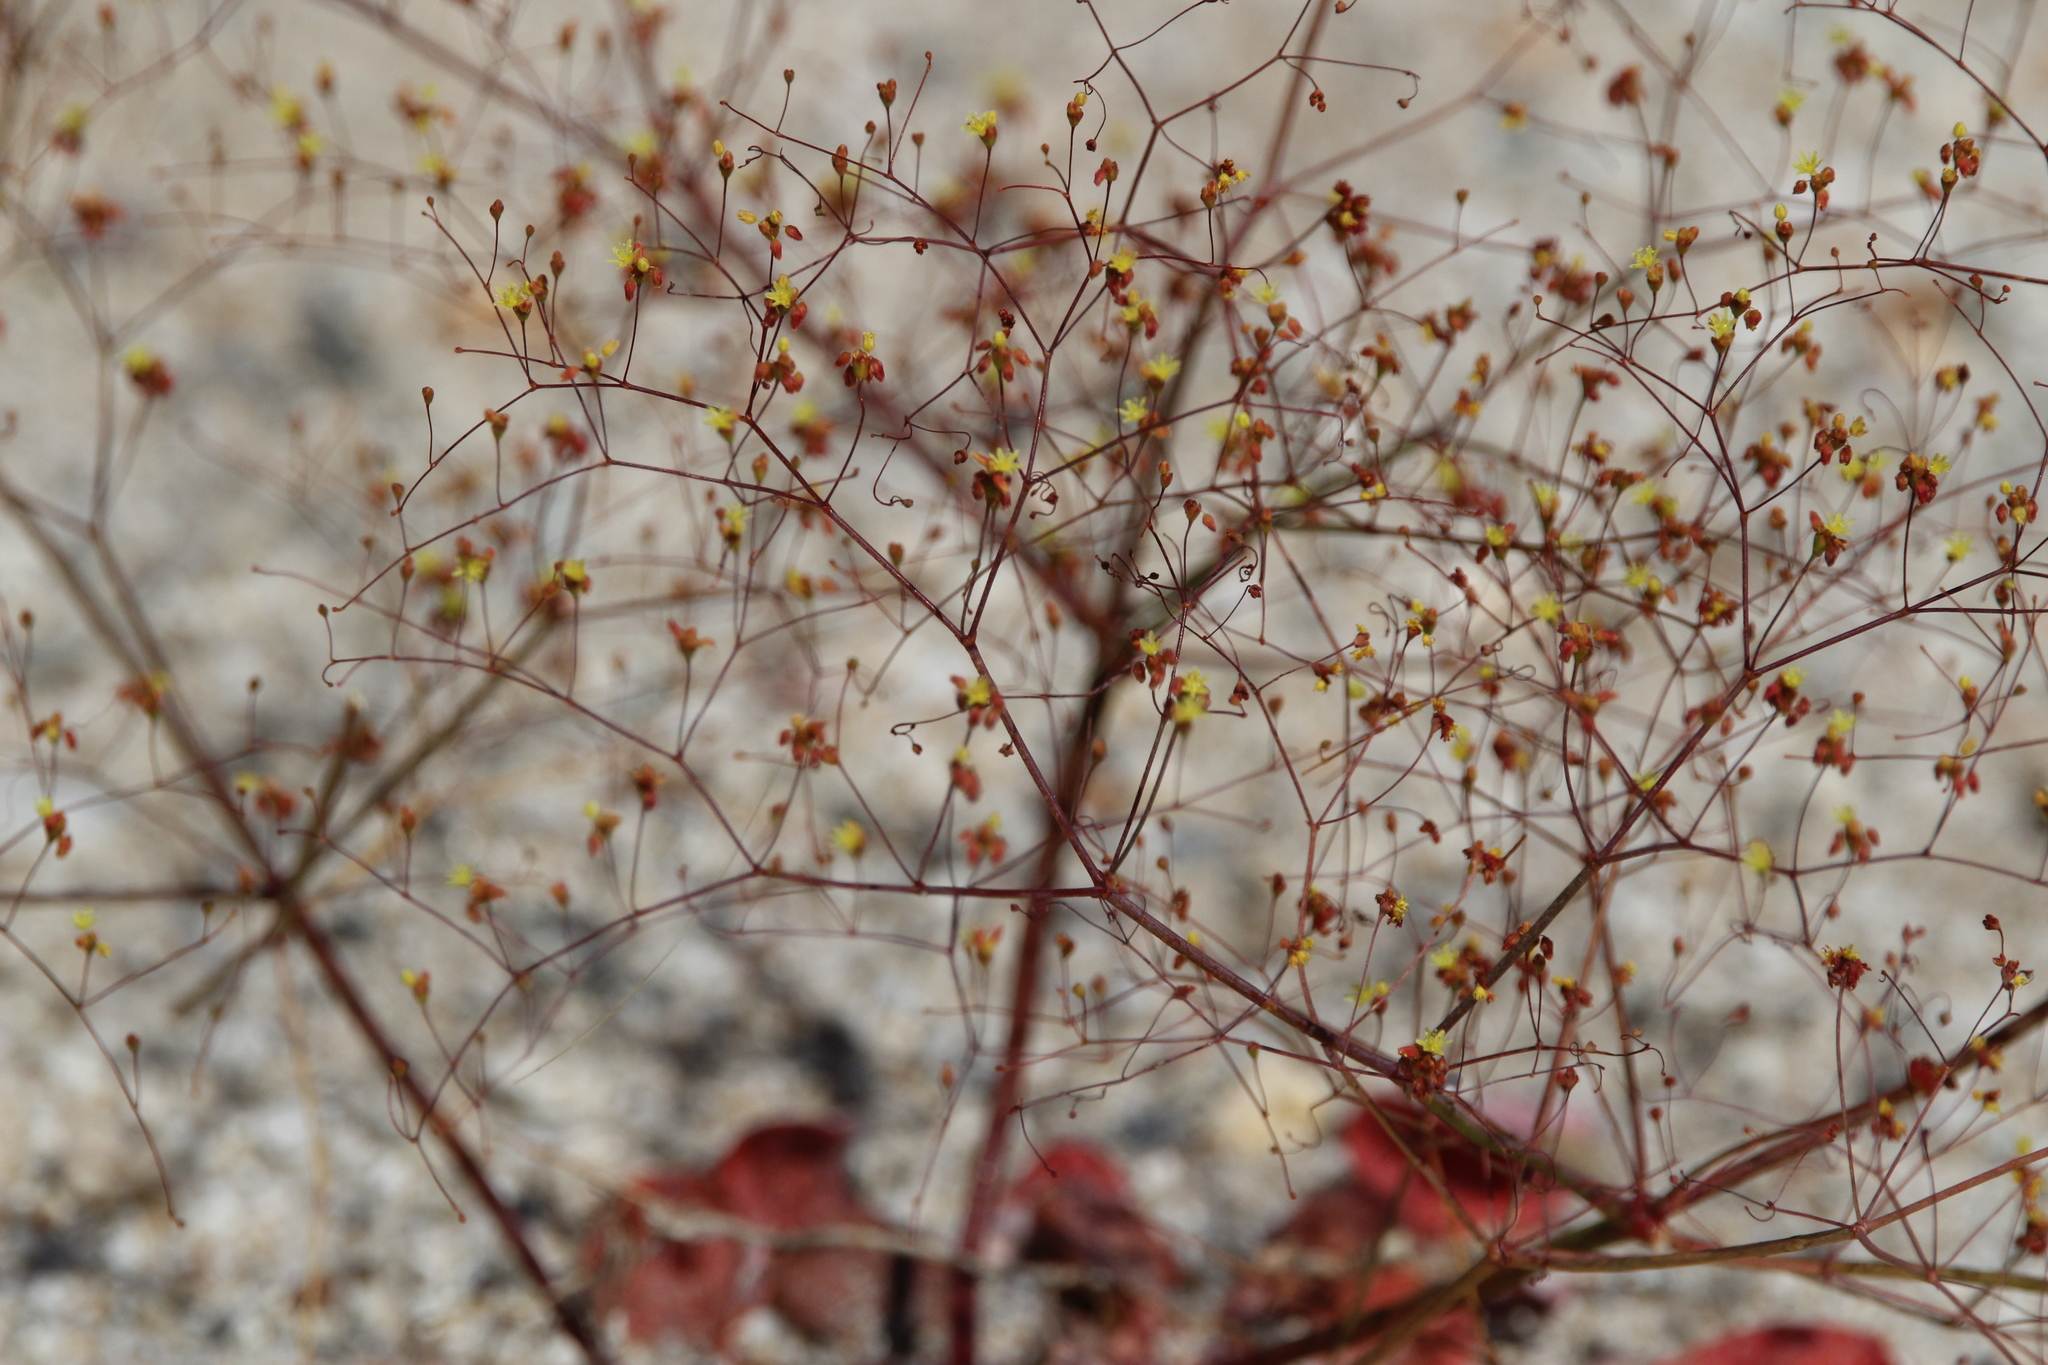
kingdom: Plantae
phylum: Tracheophyta
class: Magnoliopsida
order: Caryophyllales
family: Polygonaceae
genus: Eriogonum
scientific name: Eriogonum thomasii
